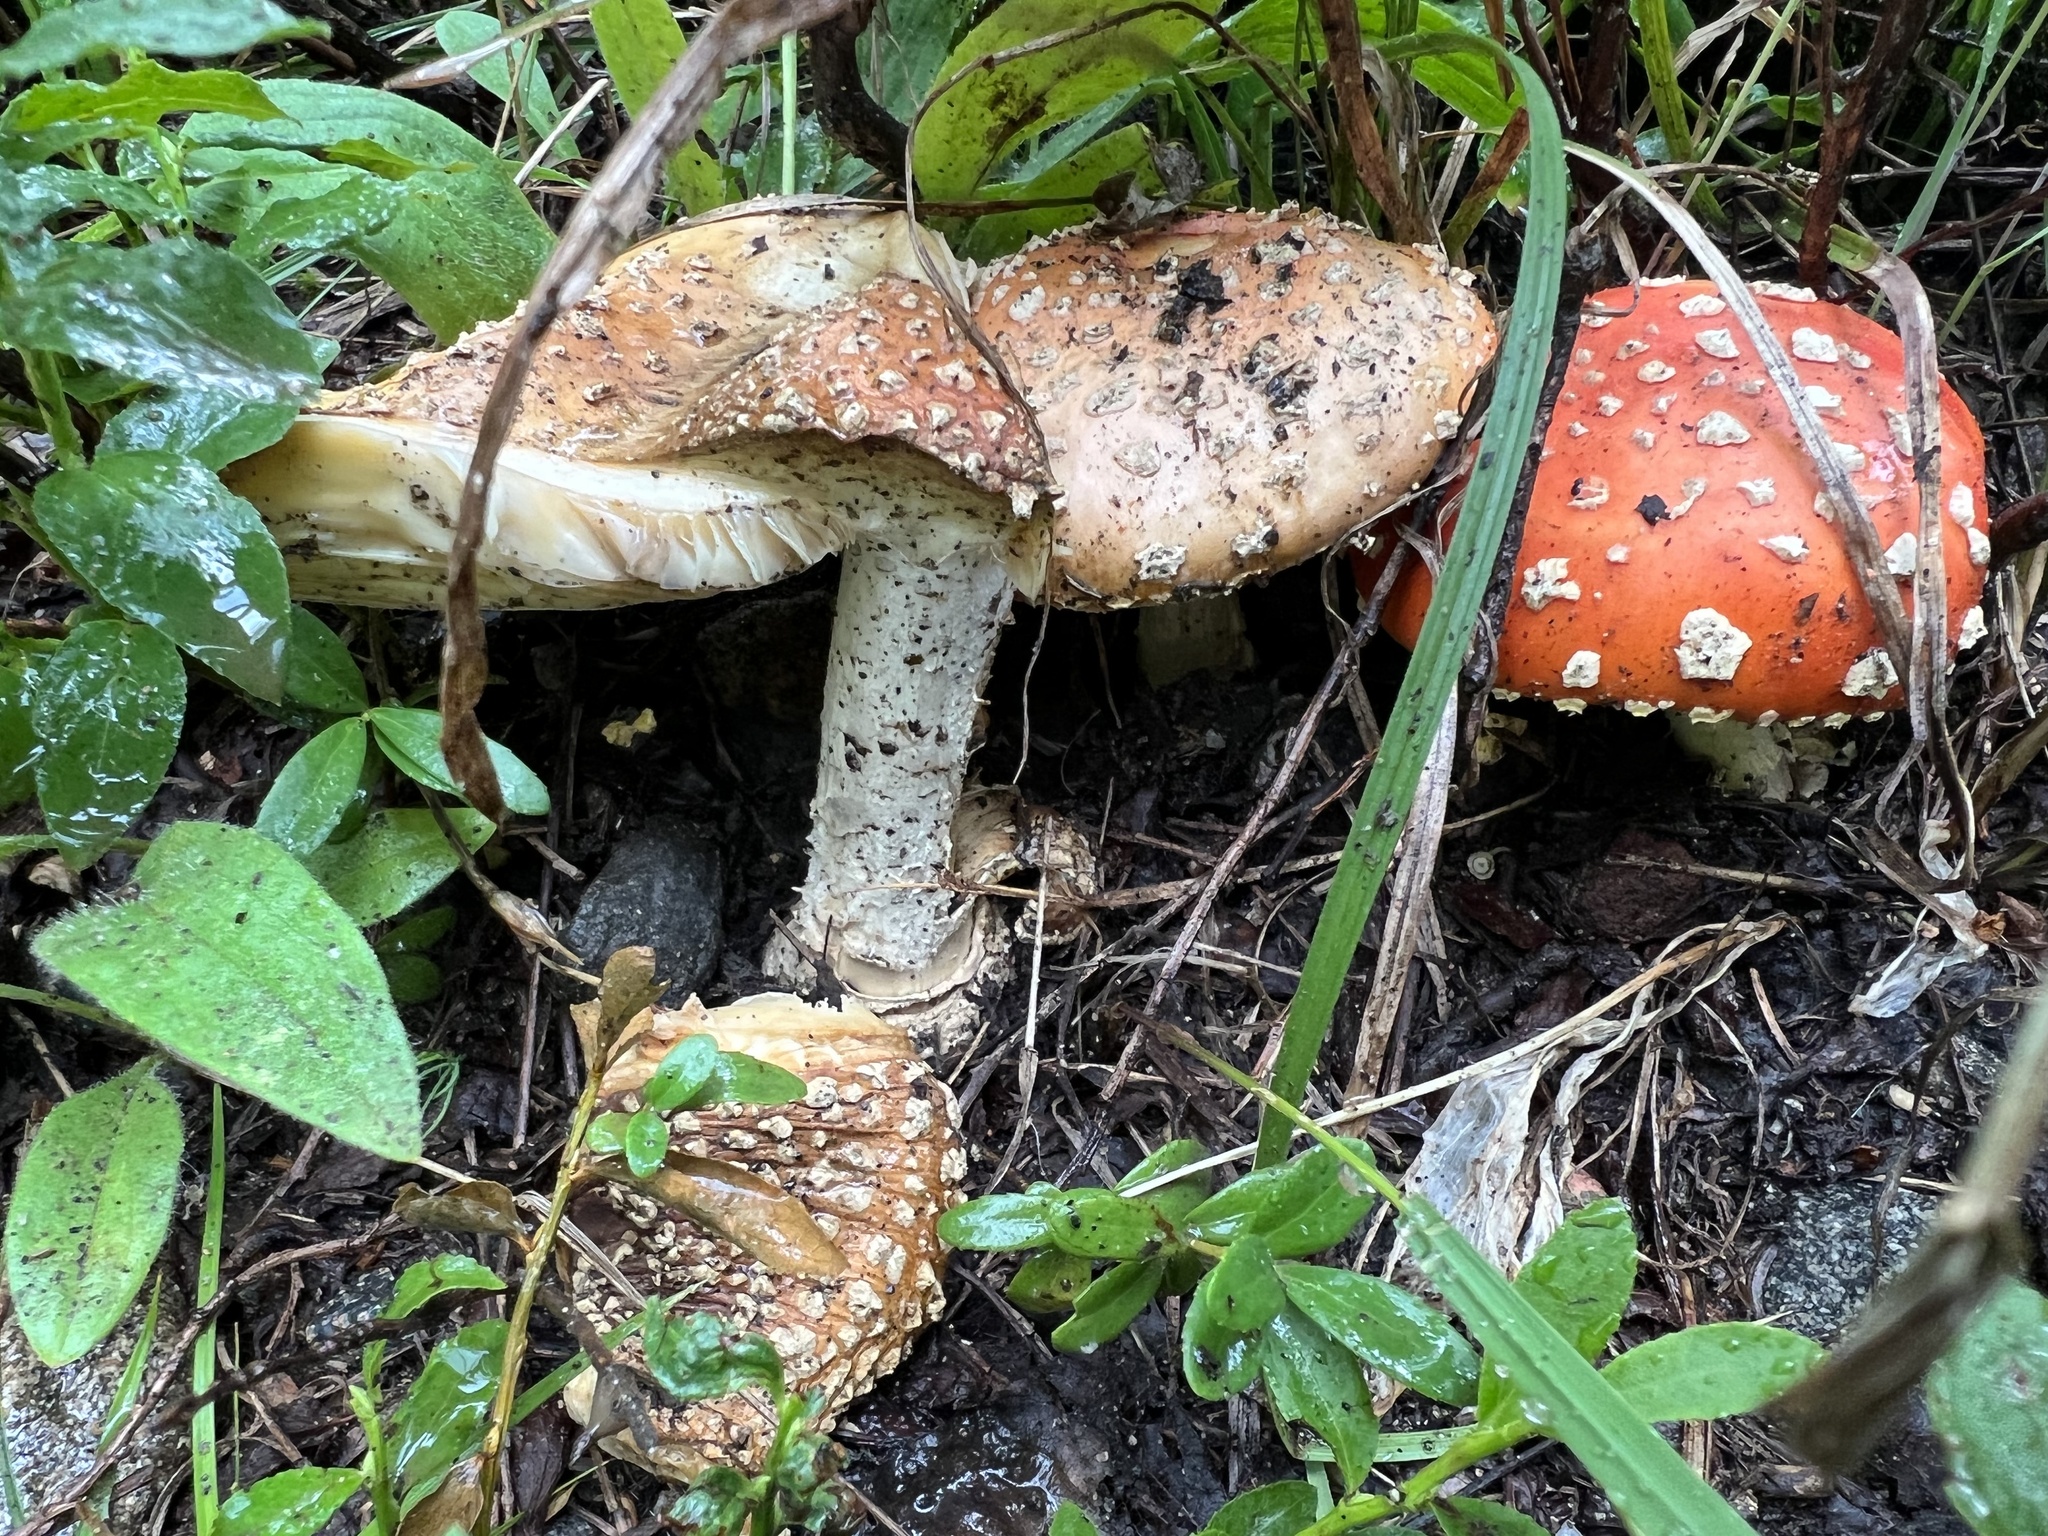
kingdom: Fungi
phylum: Basidiomycota
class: Agaricomycetes
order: Agaricales
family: Amanitaceae
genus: Amanita
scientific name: Amanita muscaria
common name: Fly agaric
